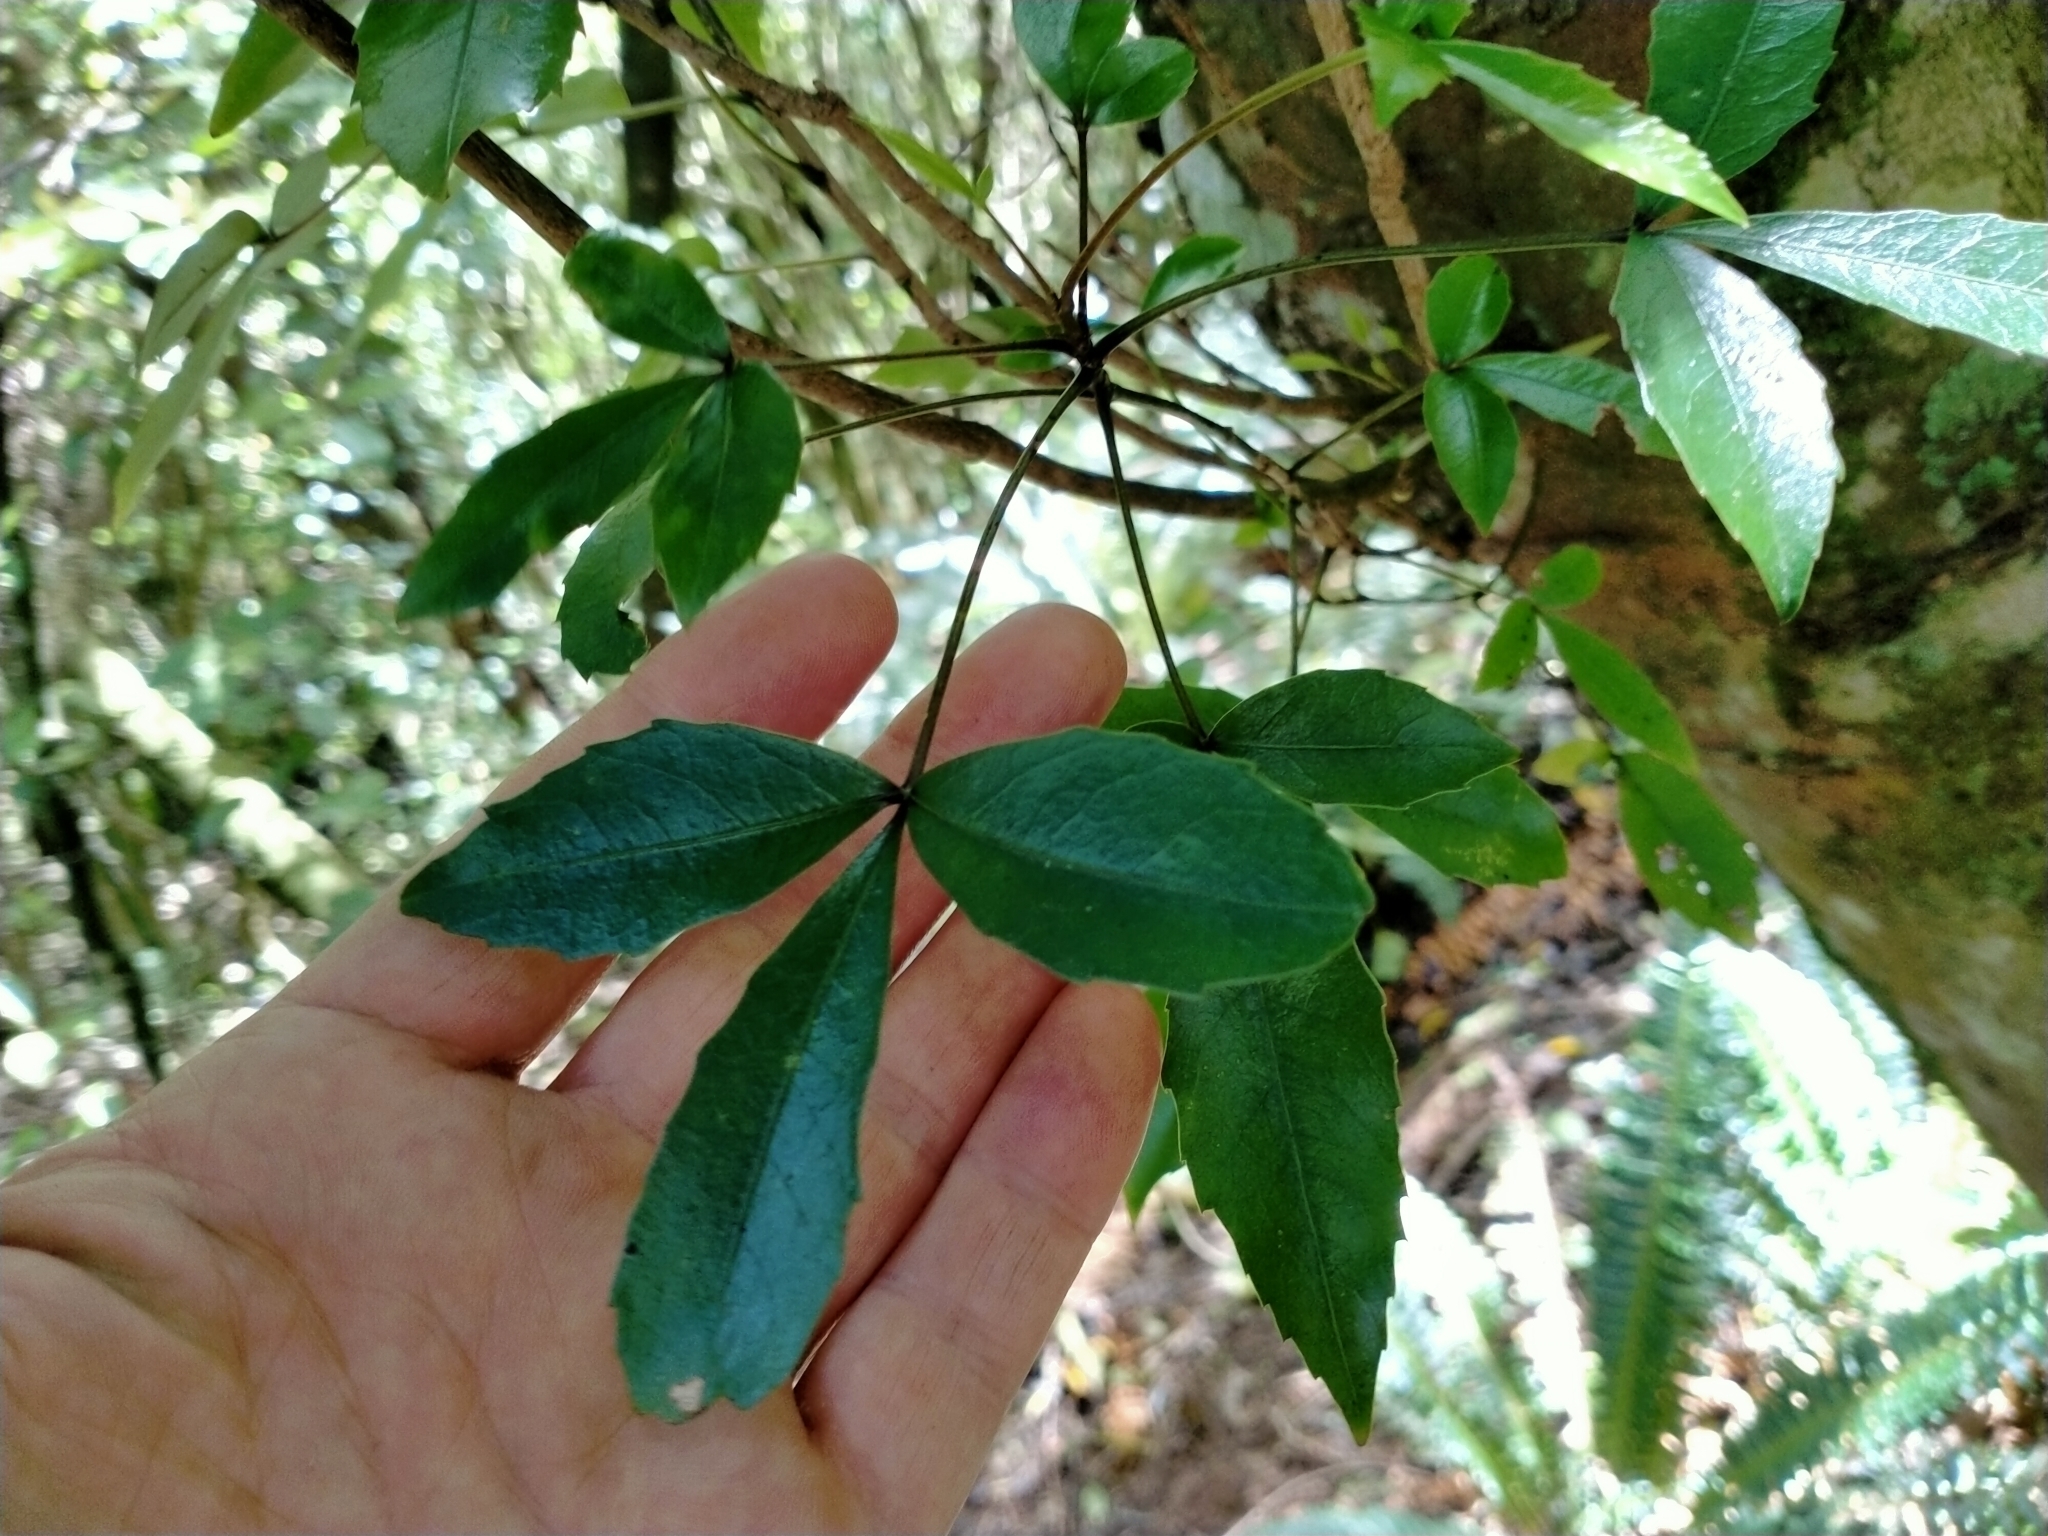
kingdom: Plantae
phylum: Tracheophyta
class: Magnoliopsida
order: Apiales
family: Araliaceae
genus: Raukaua
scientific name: Raukaua simplex
